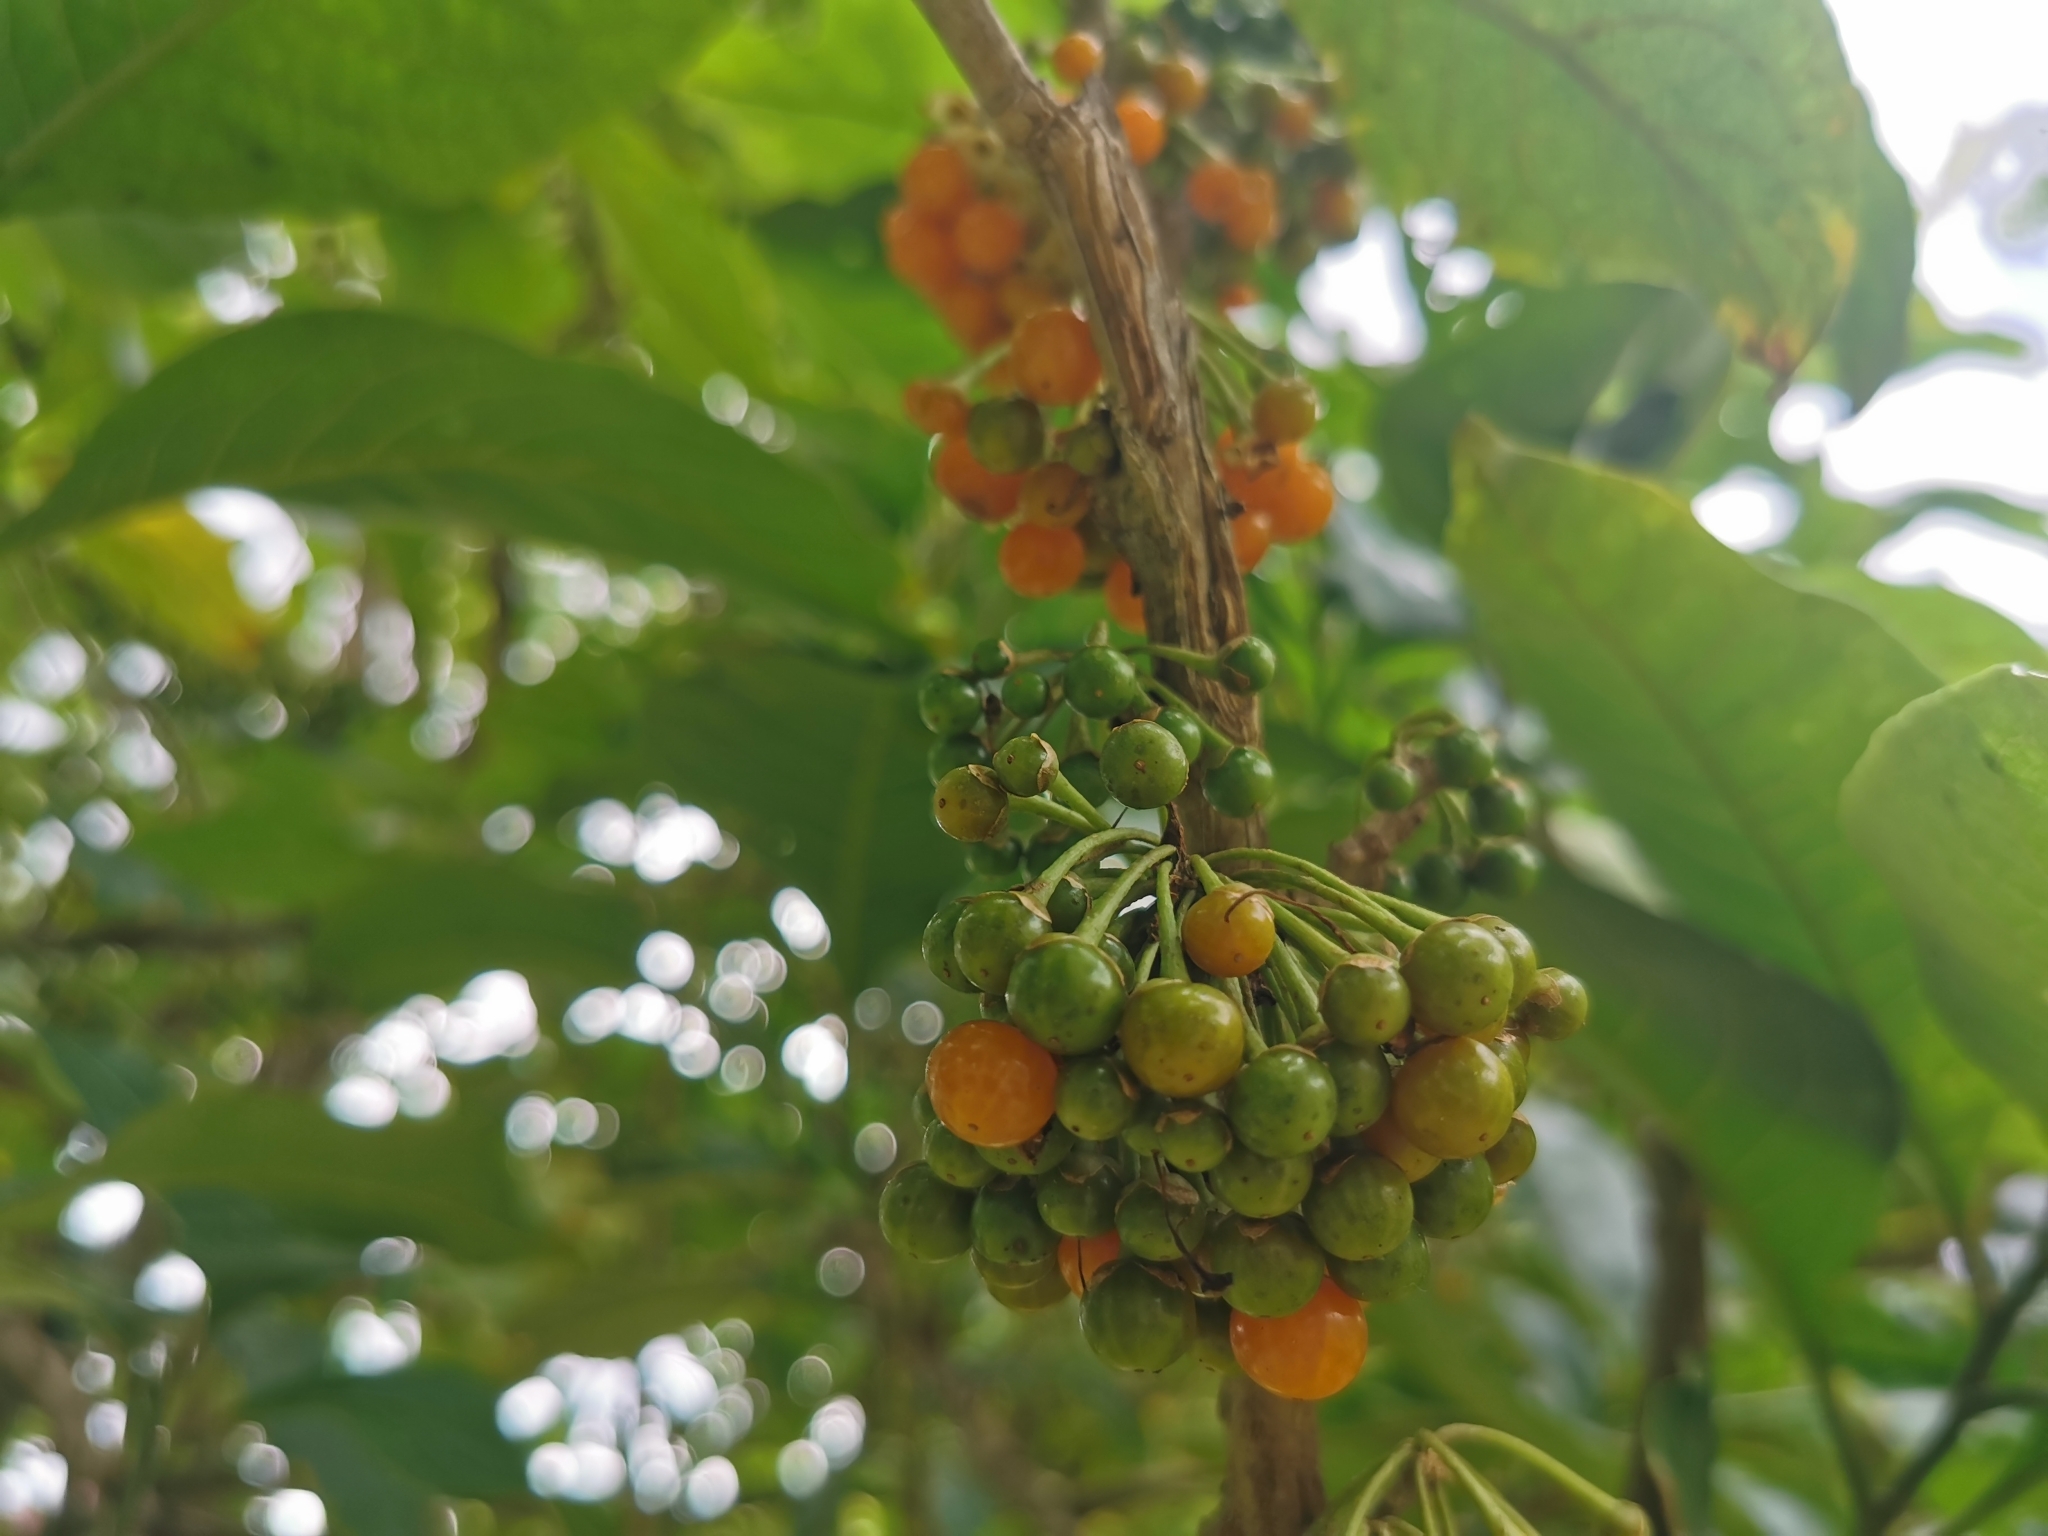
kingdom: Plantae
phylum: Tracheophyta
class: Magnoliopsida
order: Solanales
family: Solanaceae
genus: Iochroma
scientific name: Iochroma arborescens
